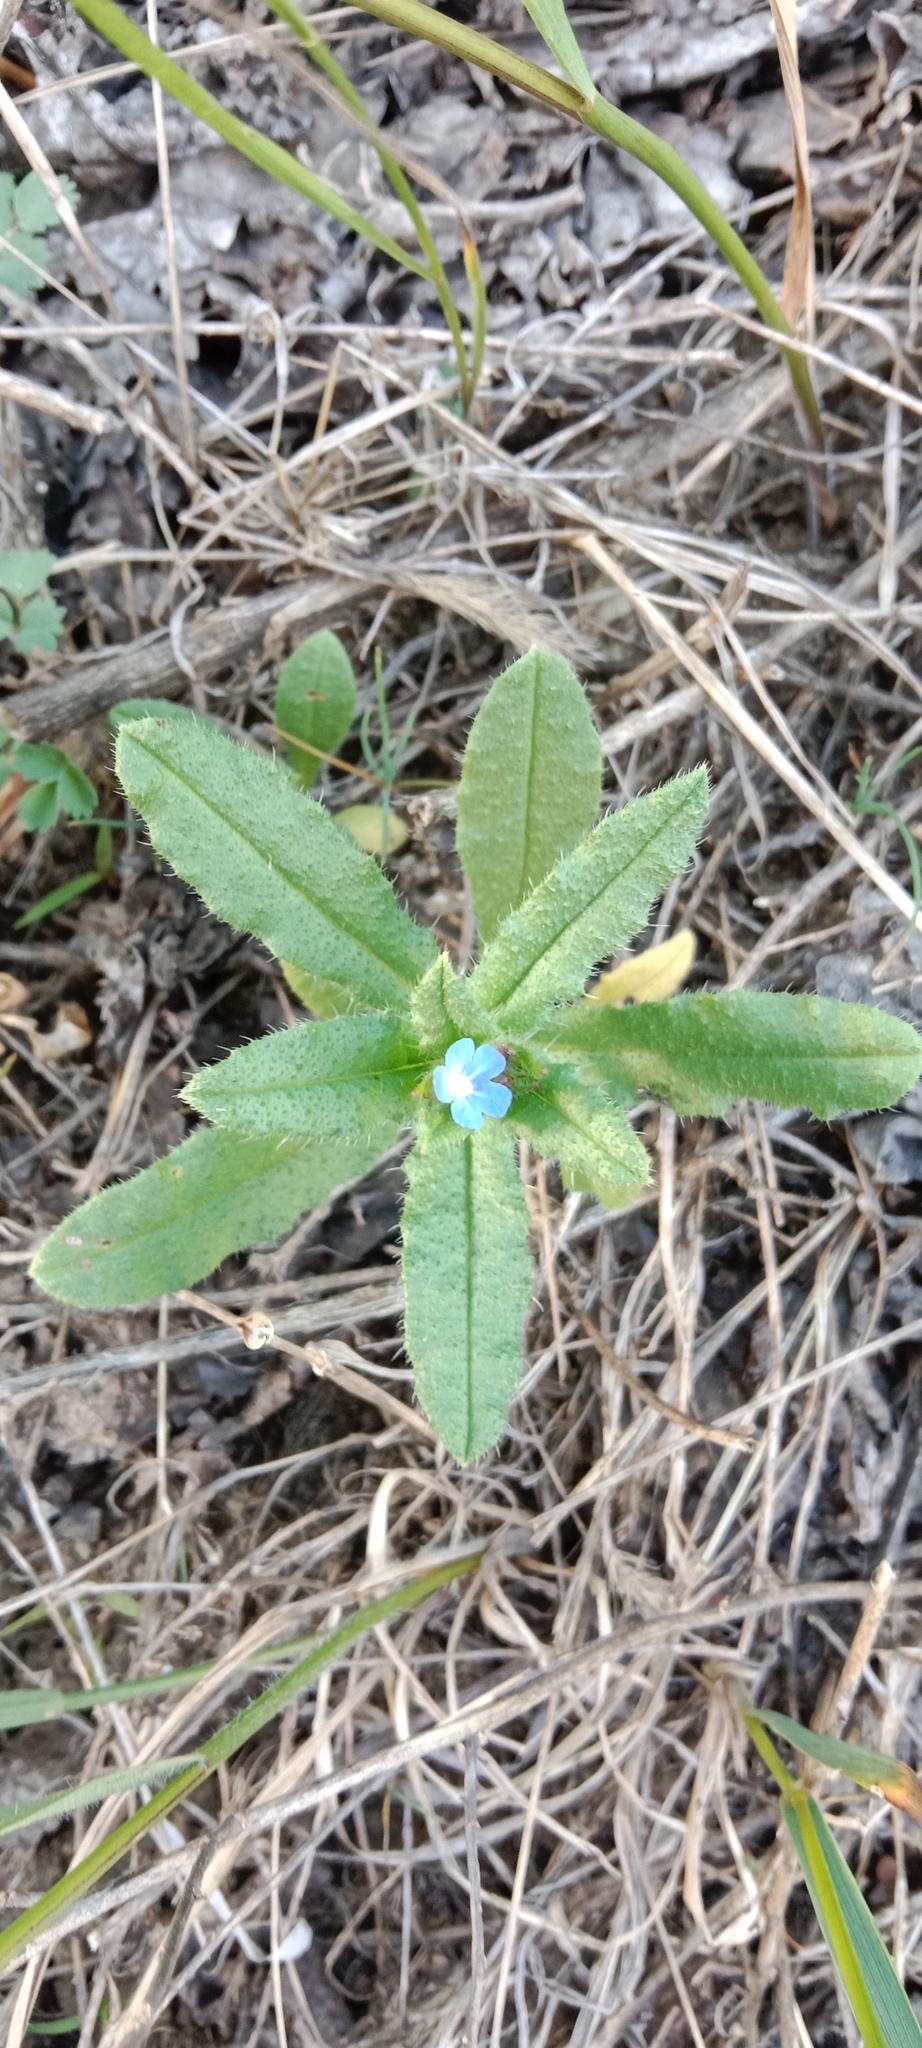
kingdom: Plantae
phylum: Tracheophyta
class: Magnoliopsida
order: Boraginales
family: Boraginaceae
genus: Lycopsis
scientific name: Lycopsis arvensis
